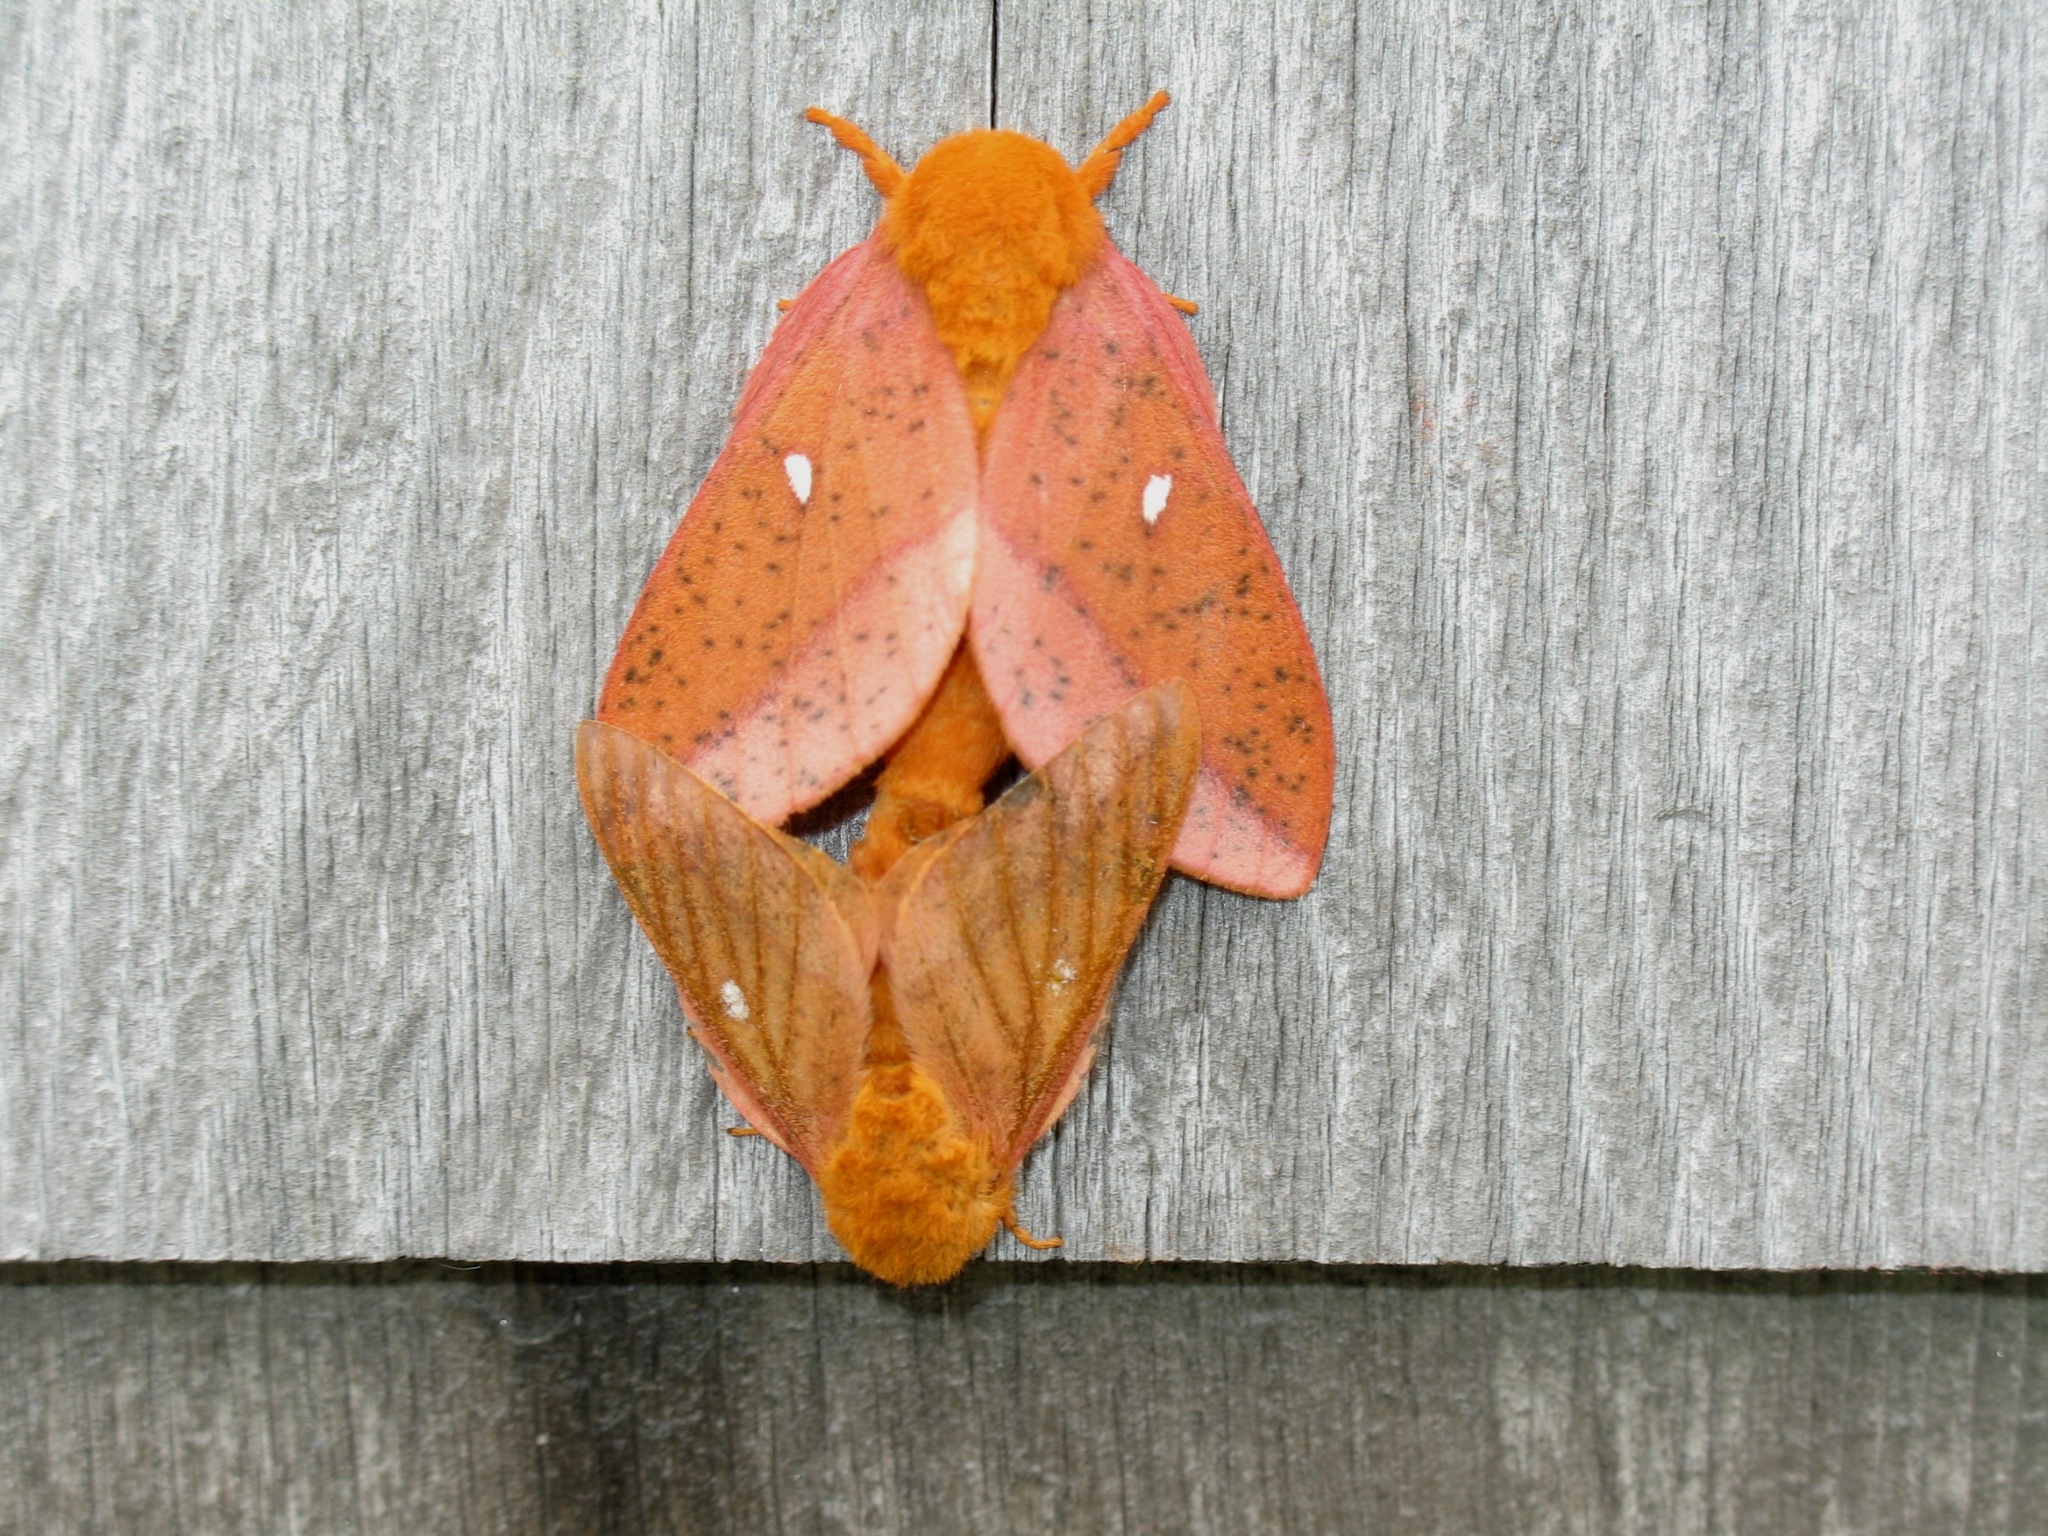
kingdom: Animalia
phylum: Arthropoda
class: Insecta
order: Lepidoptera
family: Saturniidae
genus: Anisota
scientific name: Anisota stigma
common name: Spiny oakworm moth
